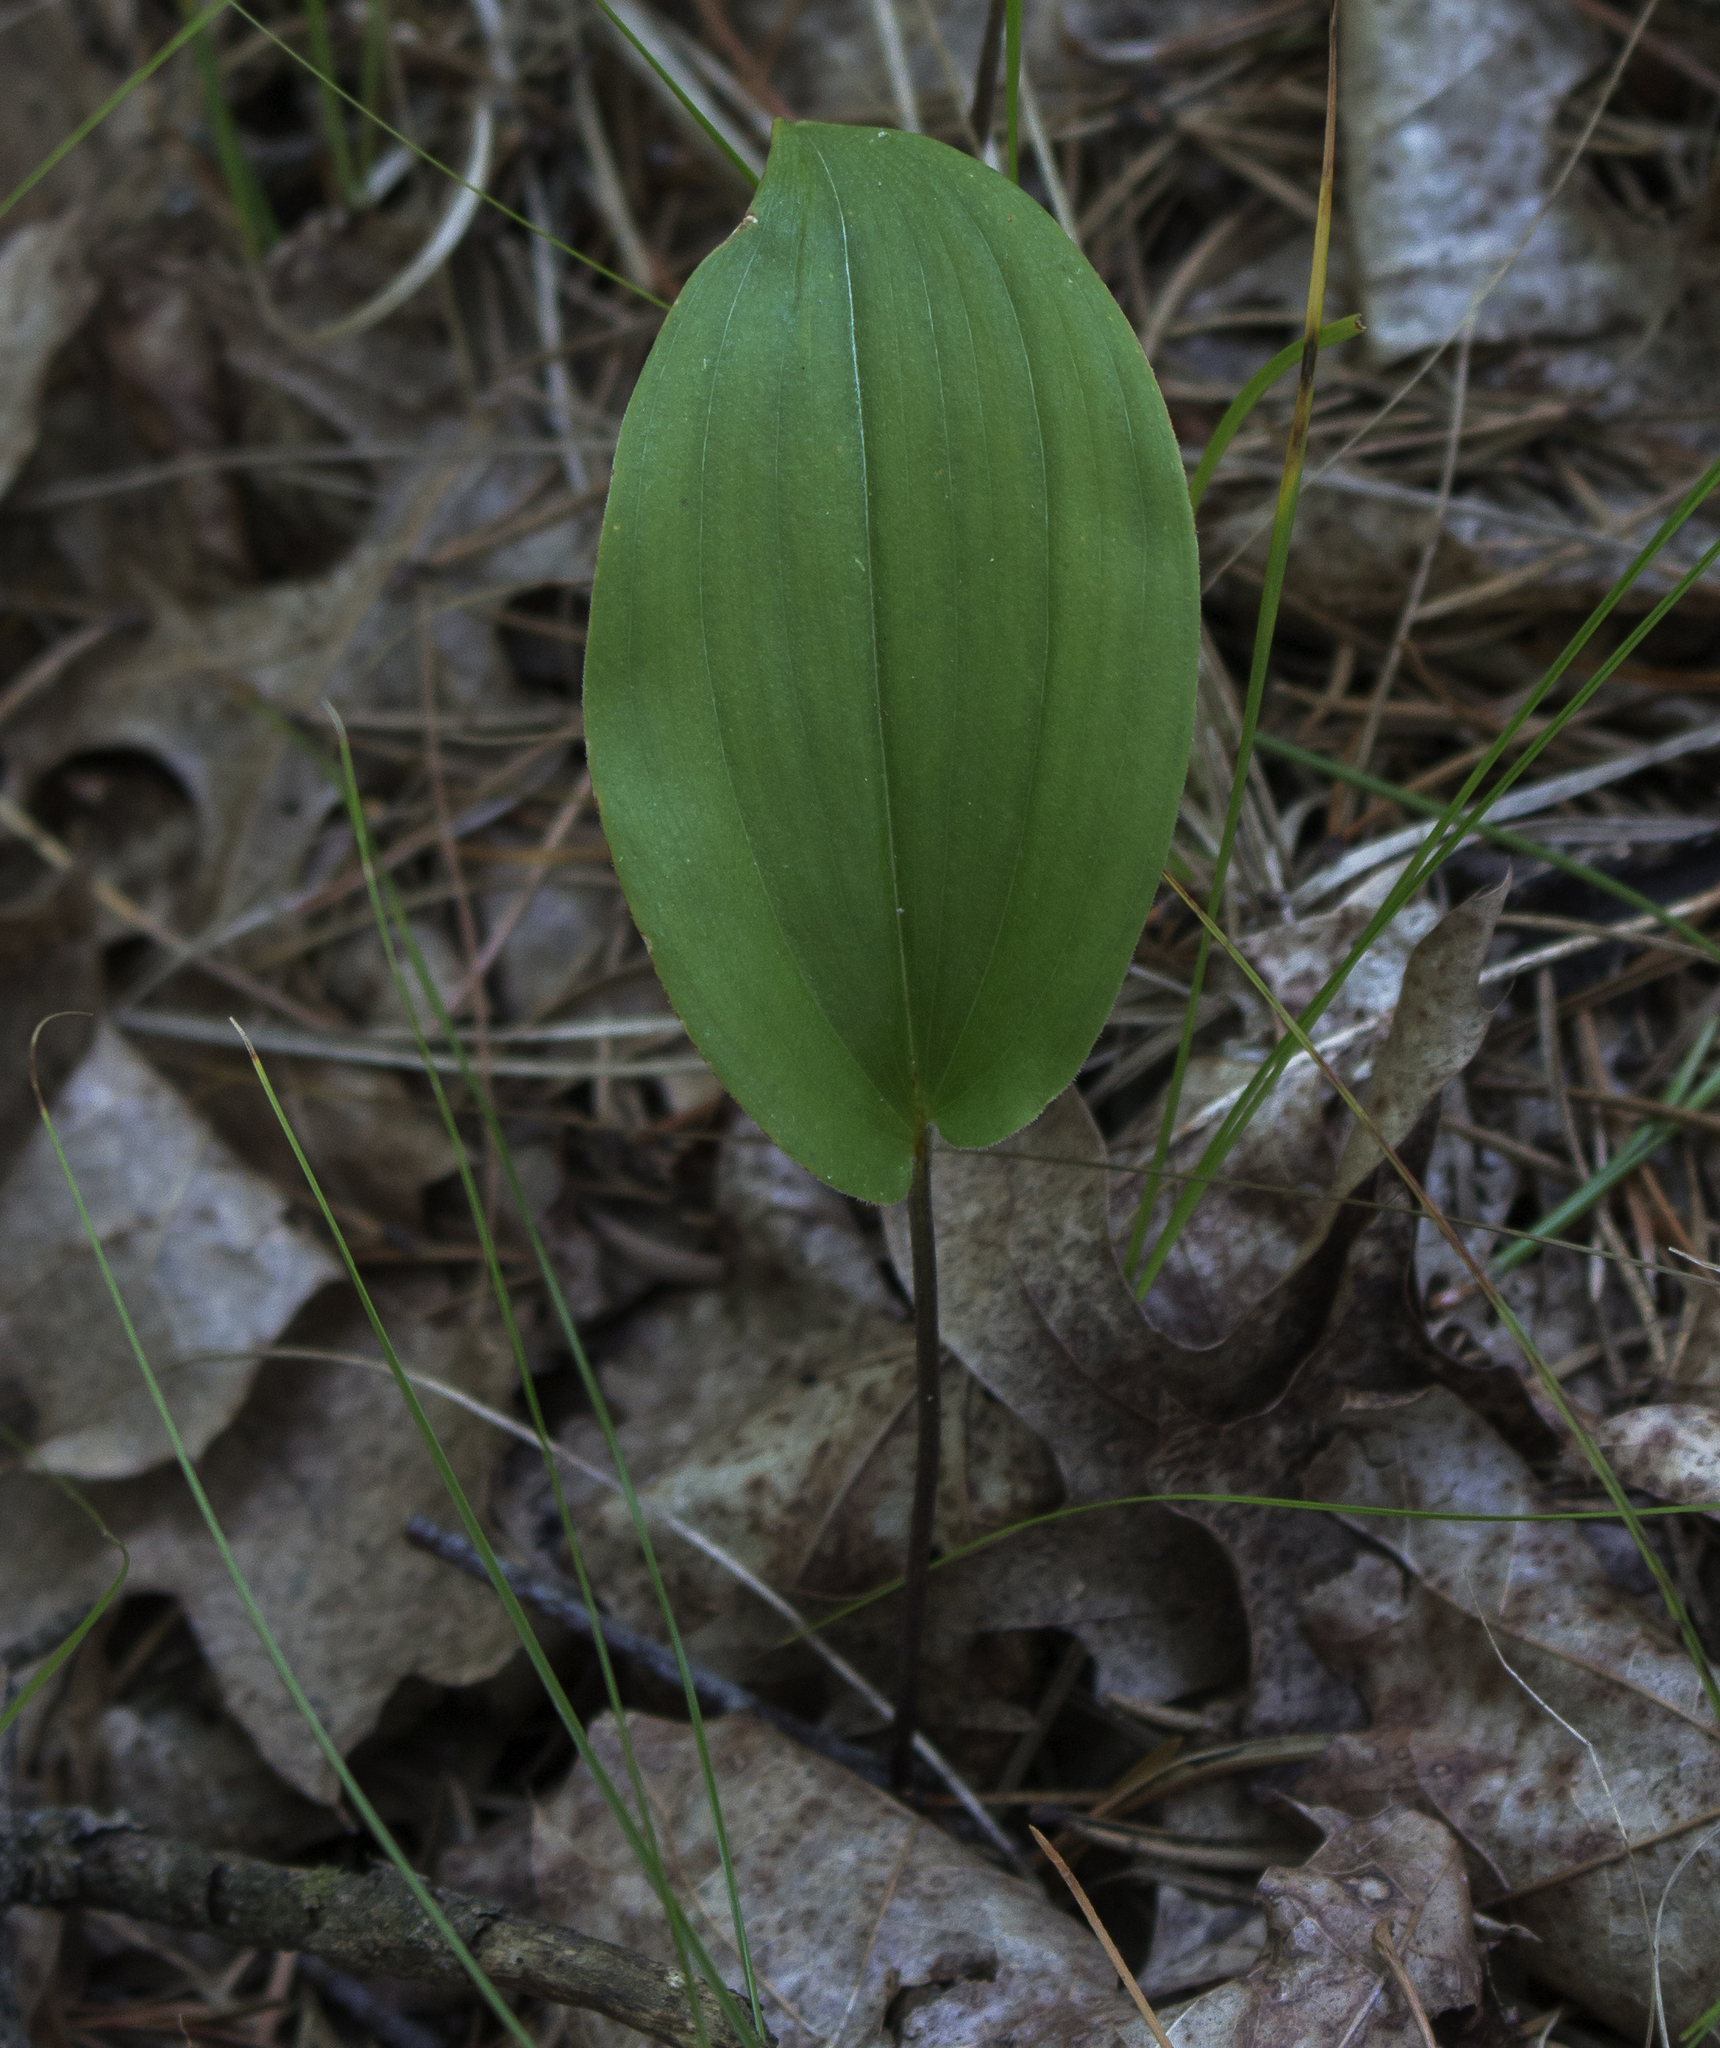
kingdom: Plantae
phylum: Tracheophyta
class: Liliopsida
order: Asparagales
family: Asparagaceae
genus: Maianthemum
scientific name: Maianthemum canadense
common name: False lily-of-the-valley
